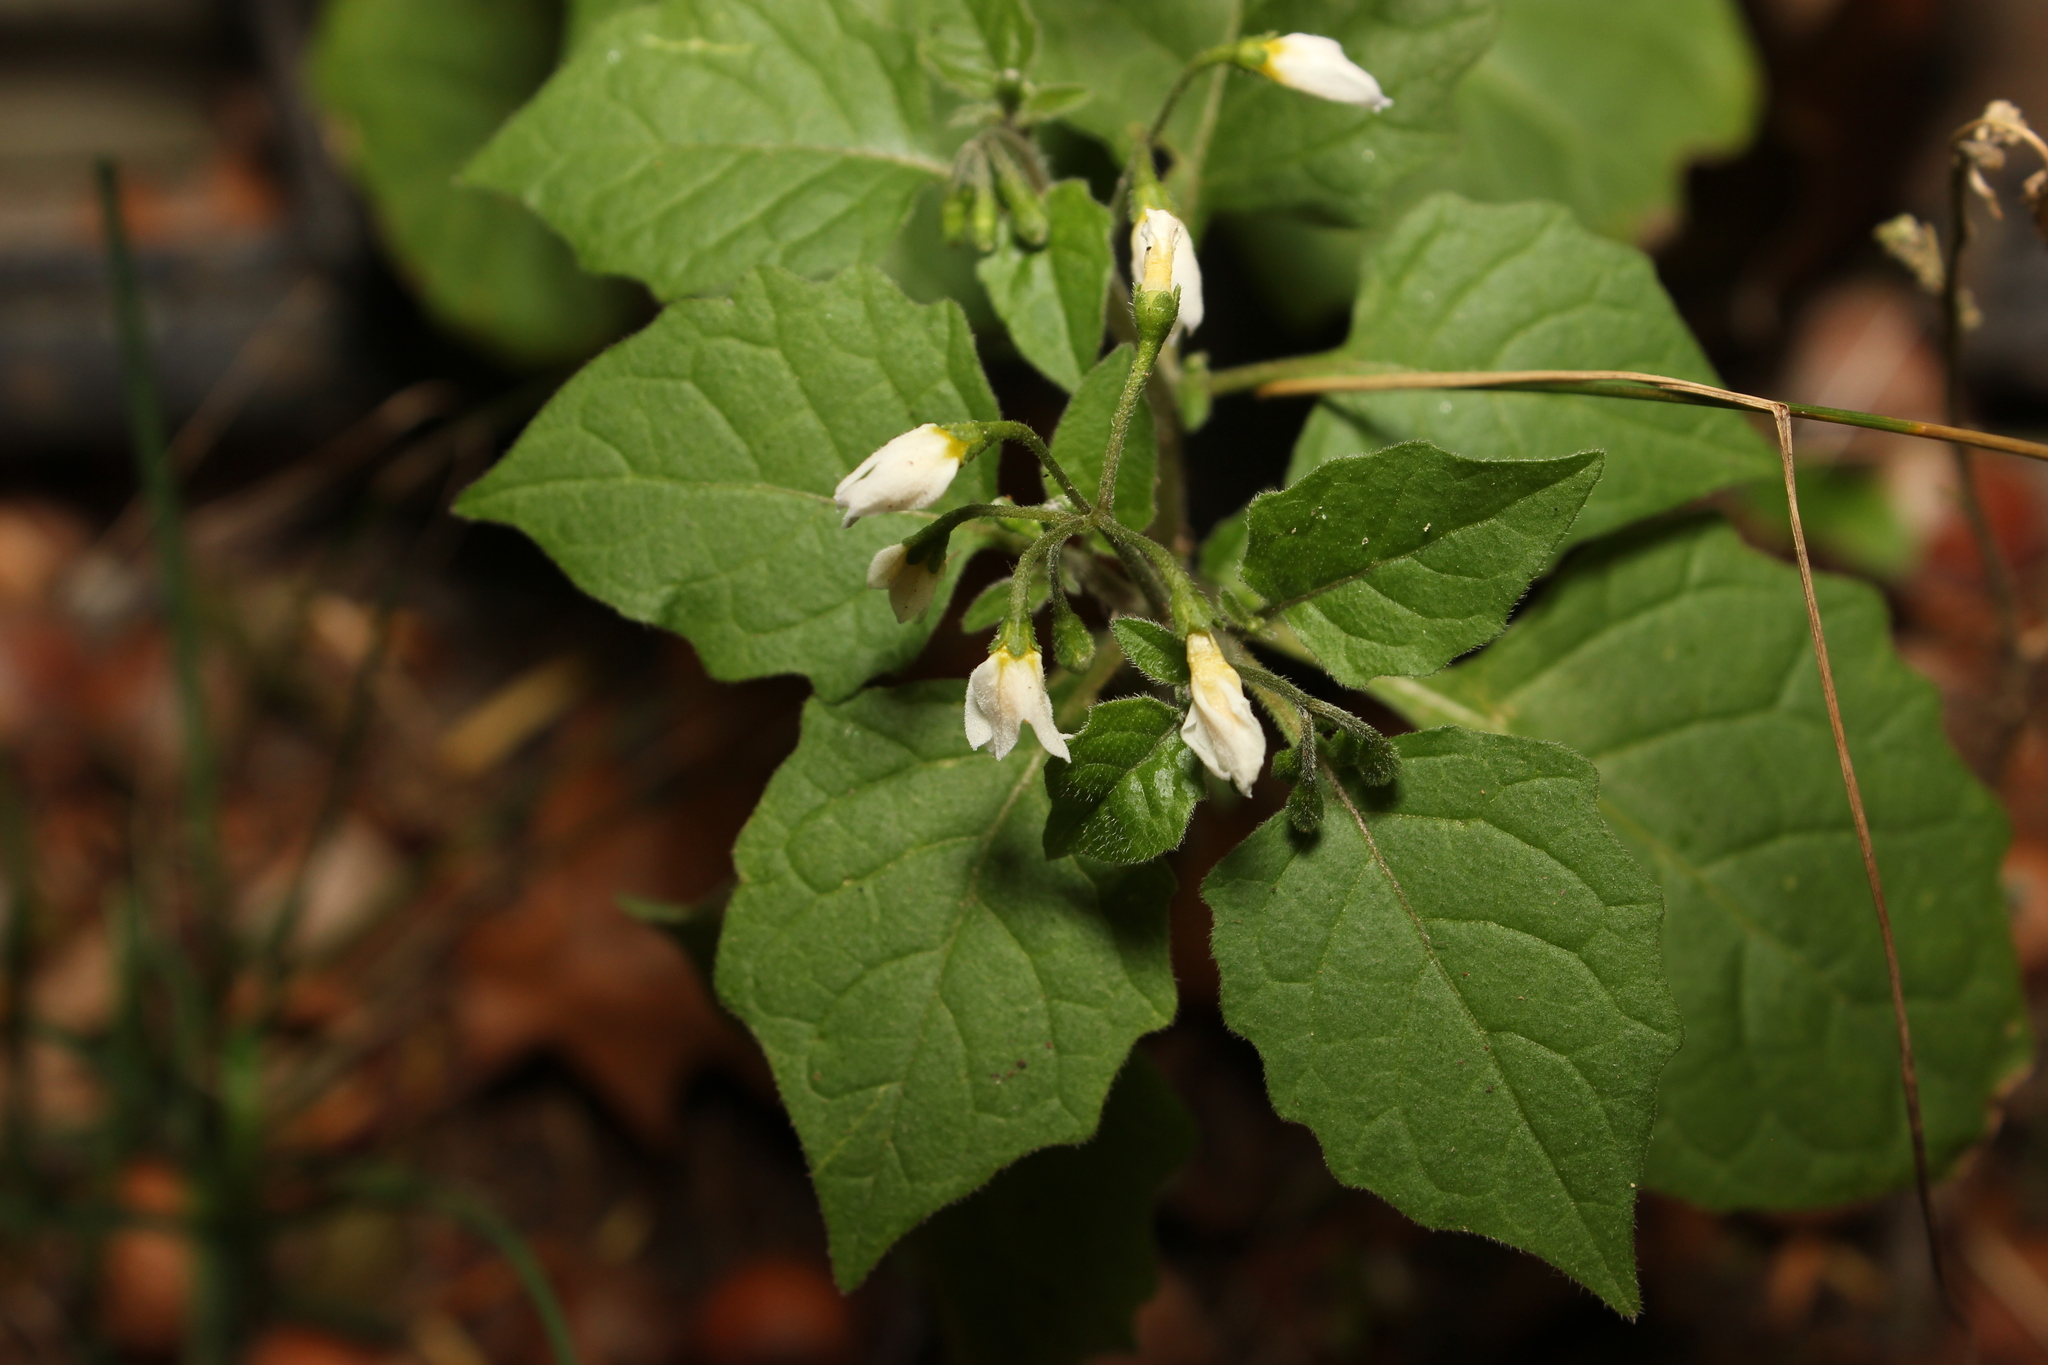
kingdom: Plantae
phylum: Tracheophyta
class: Magnoliopsida
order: Solanales
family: Solanaceae
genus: Solanum
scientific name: Solanum nigrum
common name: Black nightshade
